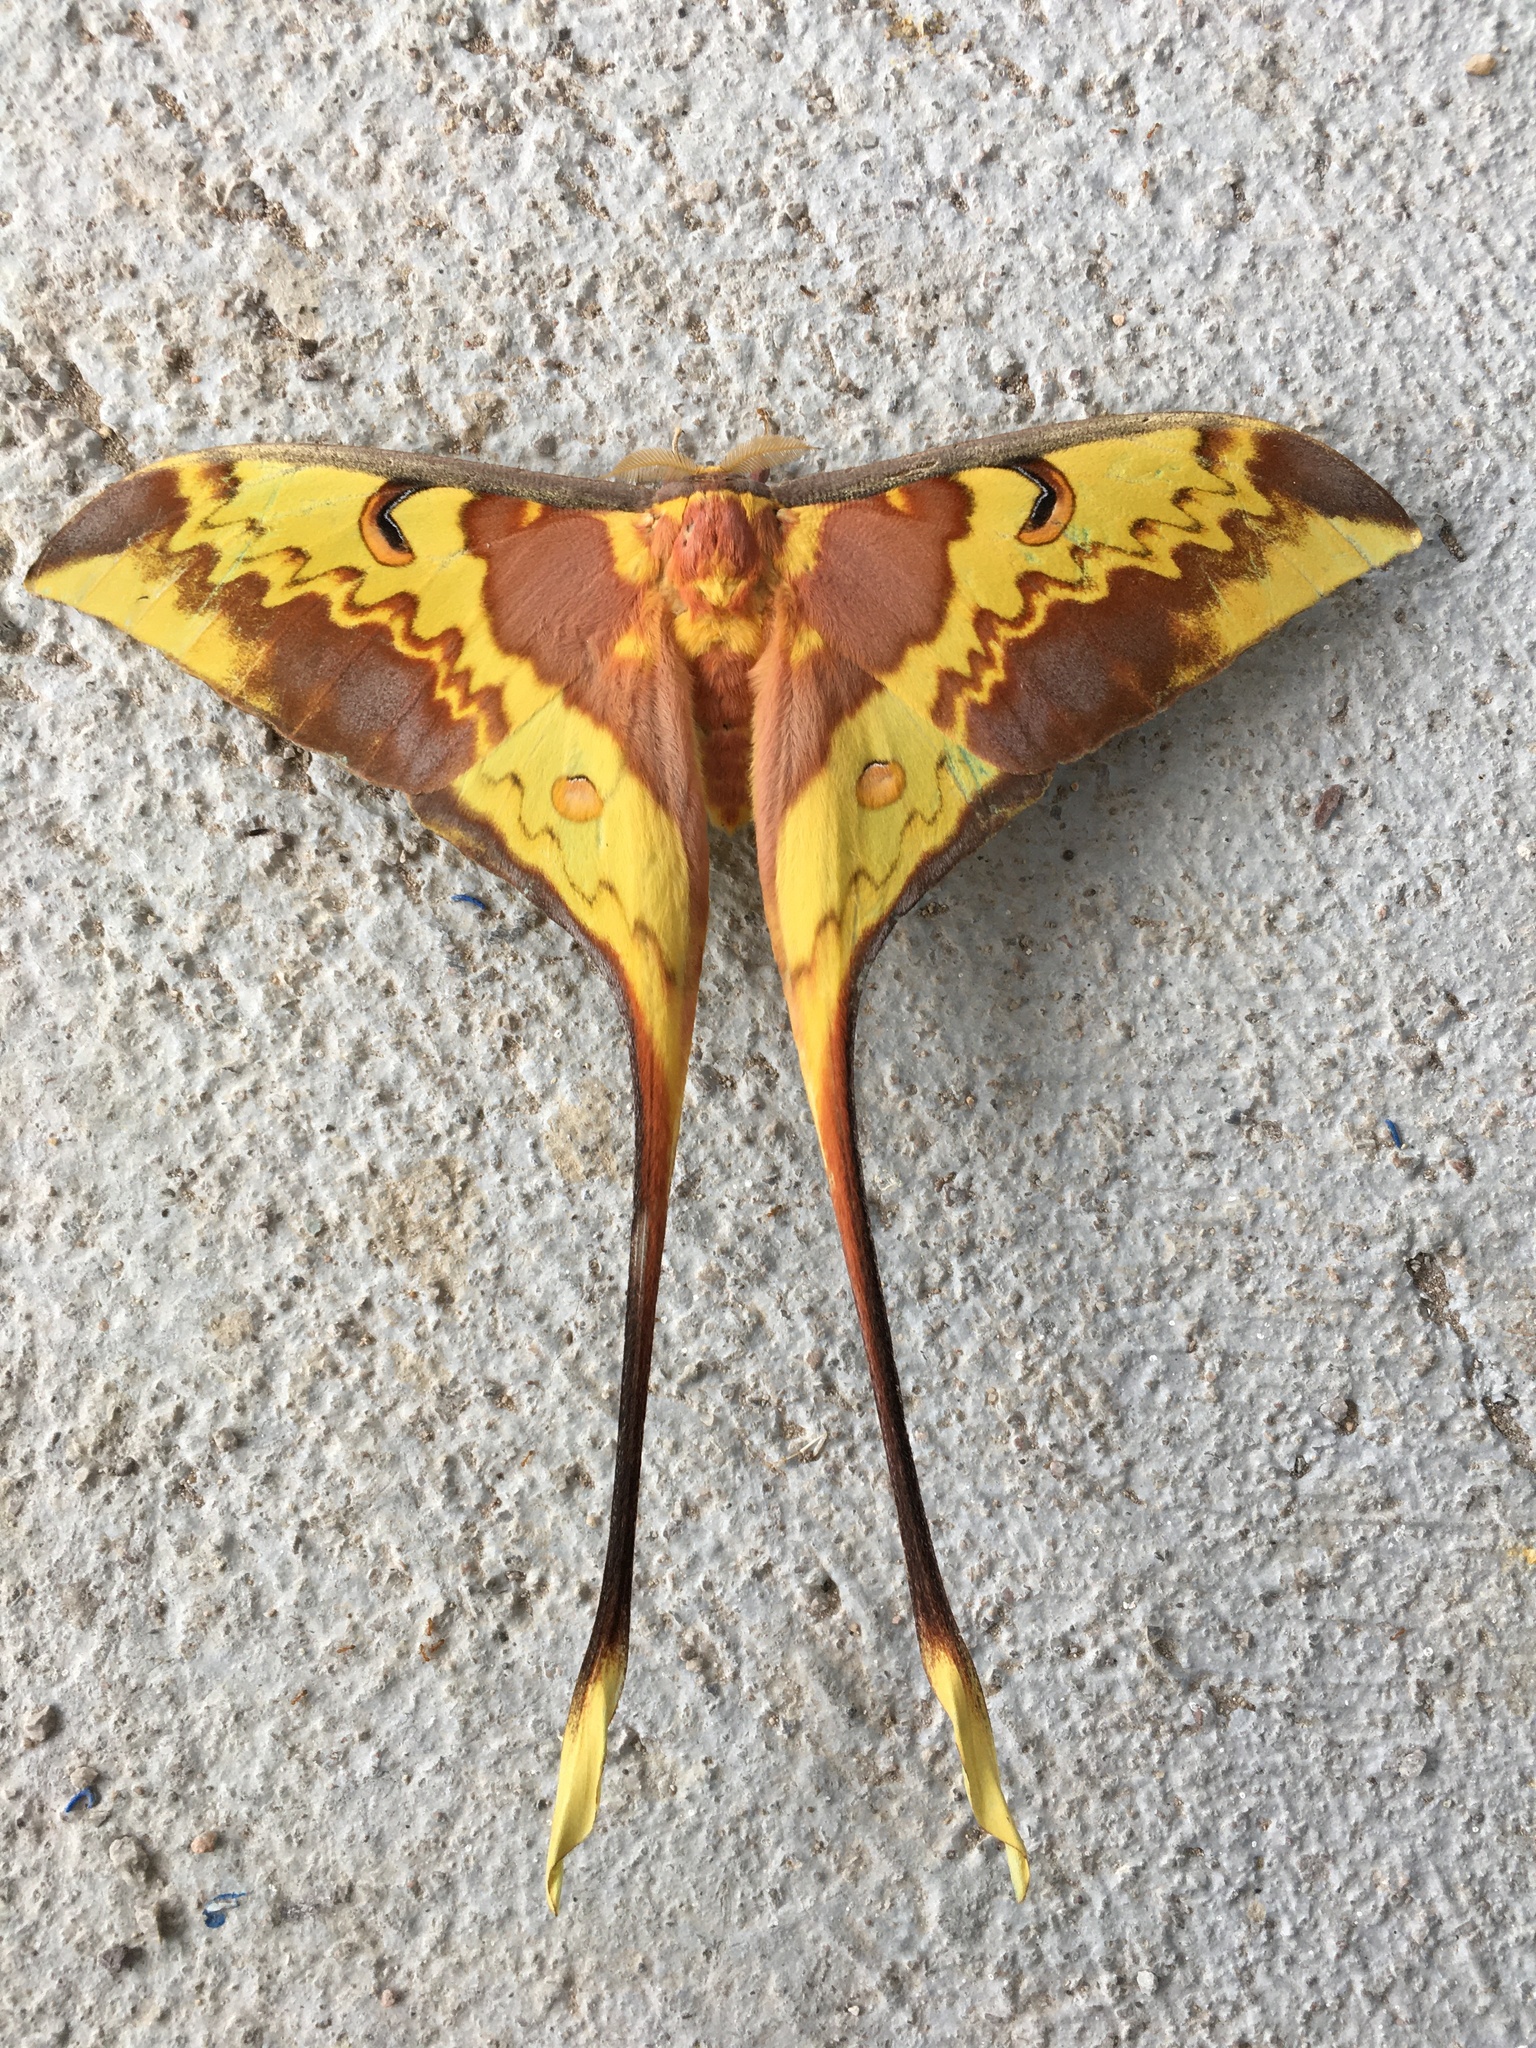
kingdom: Animalia
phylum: Arthropoda
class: Insecta
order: Lepidoptera
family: Saturniidae
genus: Actias
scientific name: Actias maenas
